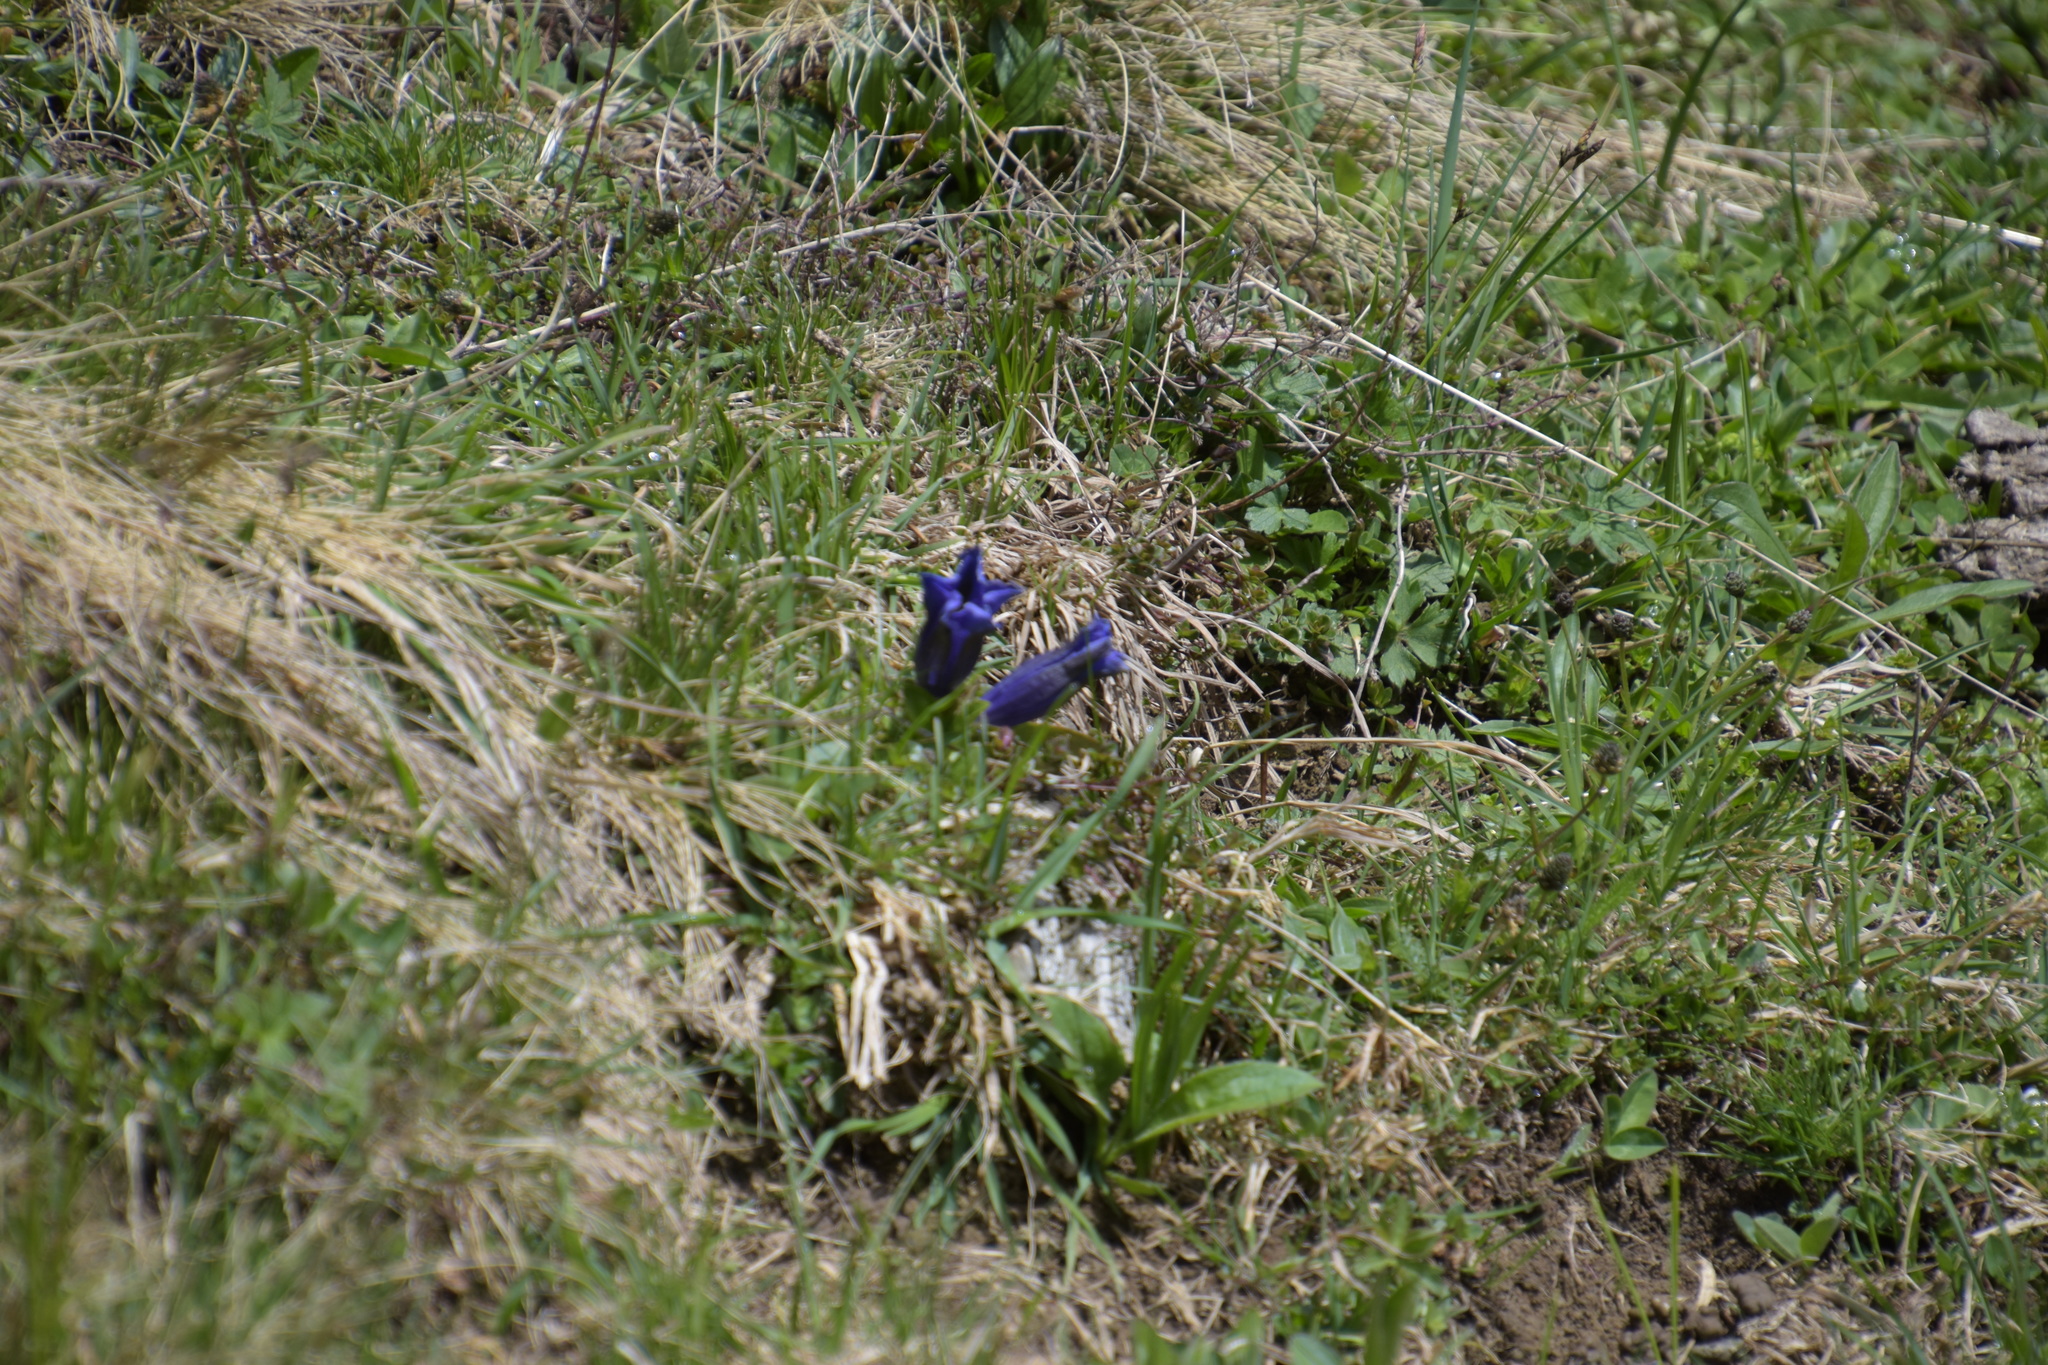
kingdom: Plantae
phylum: Tracheophyta
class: Magnoliopsida
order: Gentianales
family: Gentianaceae
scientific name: Gentianaceae
